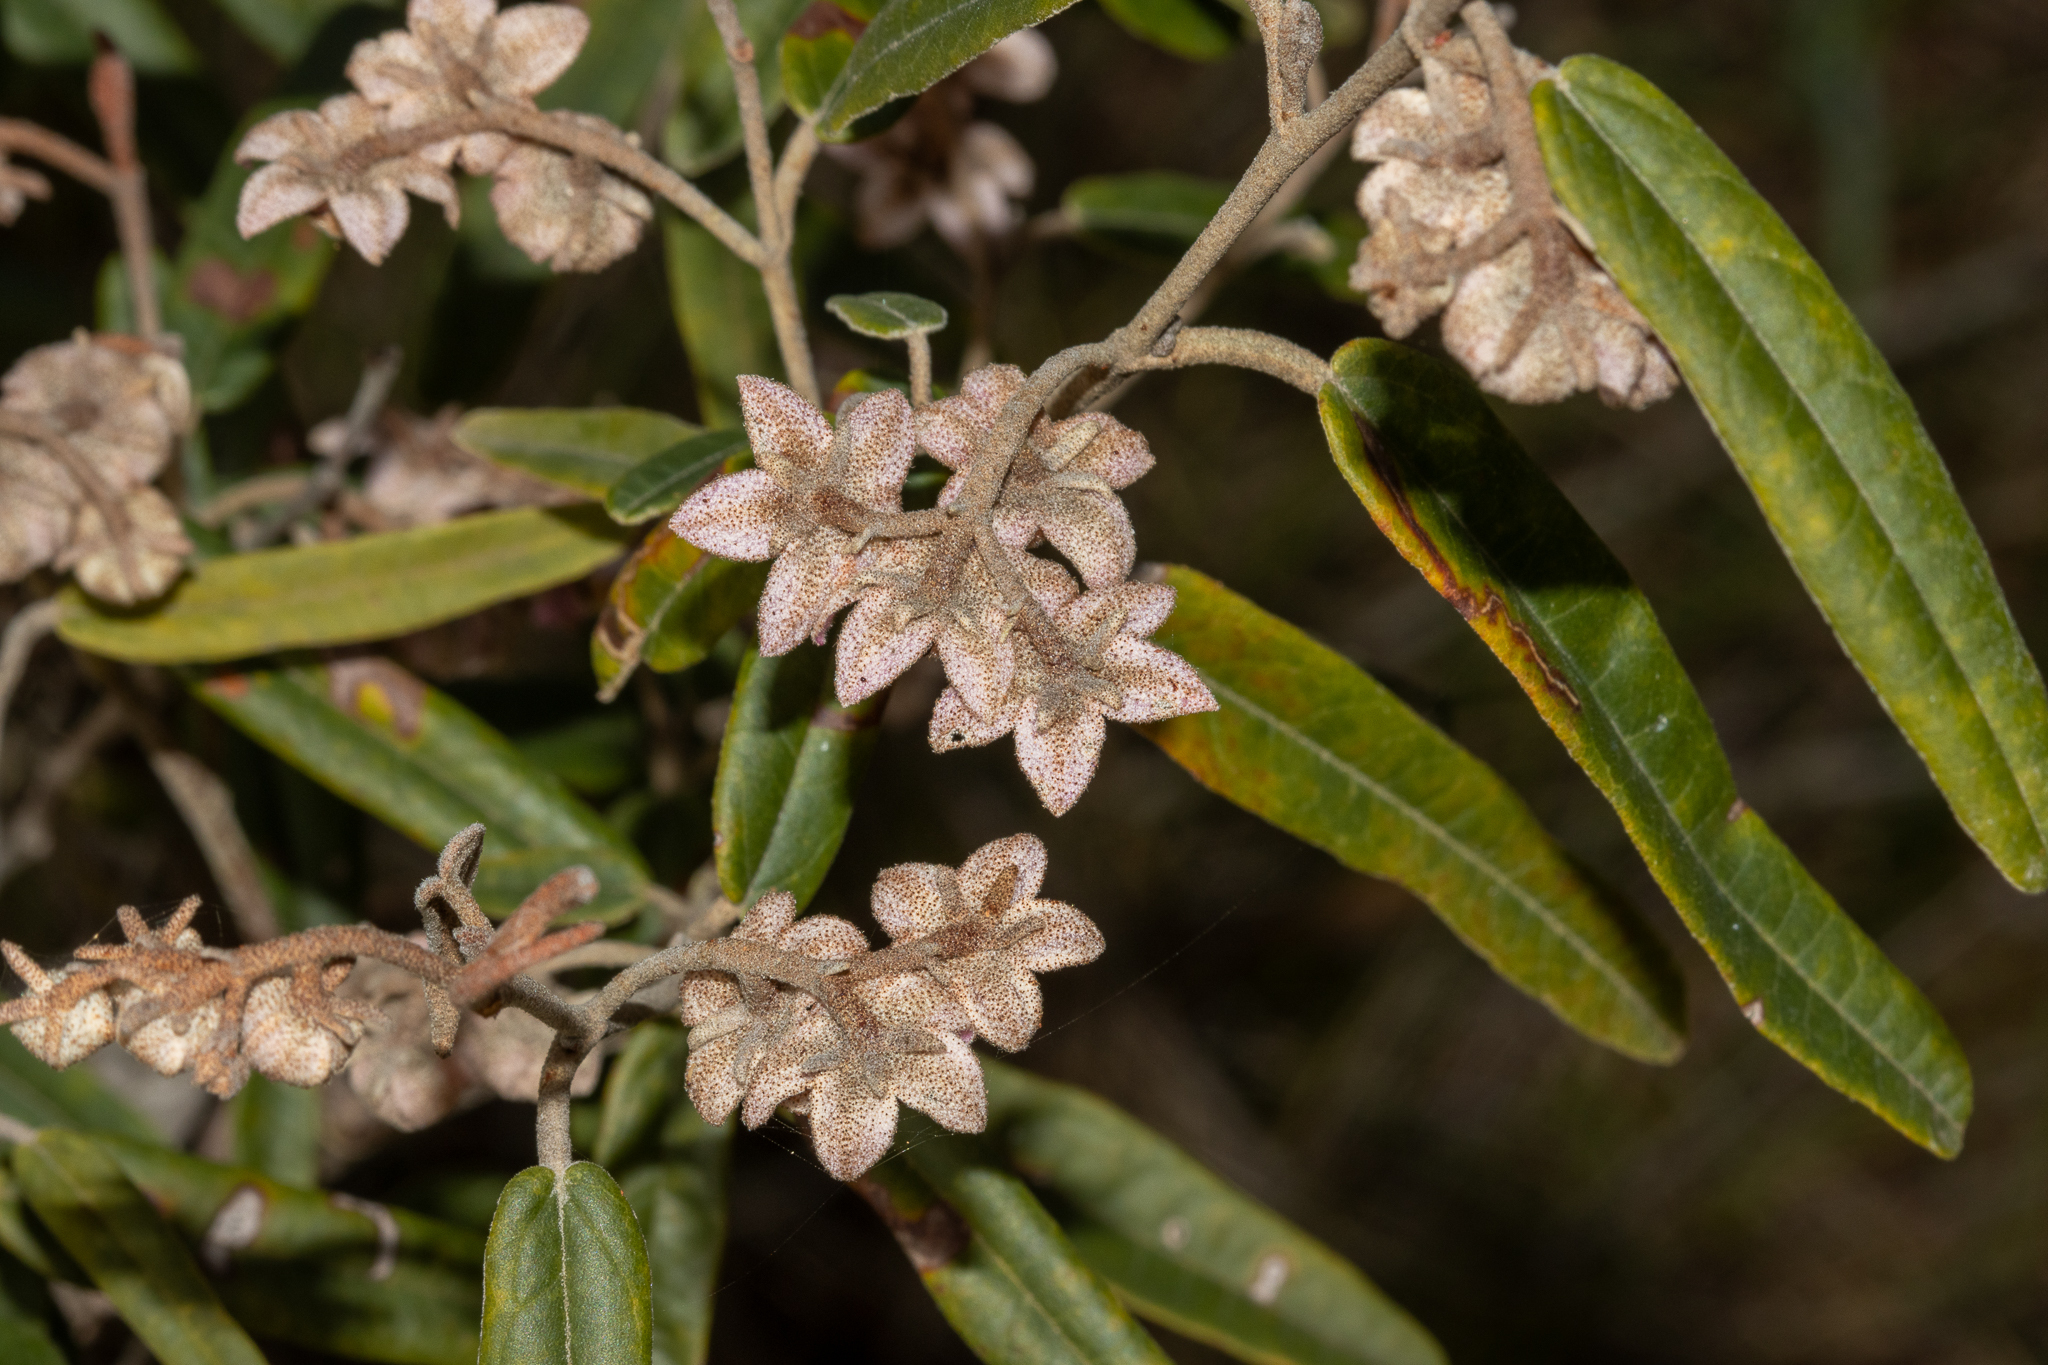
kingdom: Plantae
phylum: Tracheophyta
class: Magnoliopsida
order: Malvales
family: Malvaceae
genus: Lasiopetalum
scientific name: Lasiopetalum behrii
